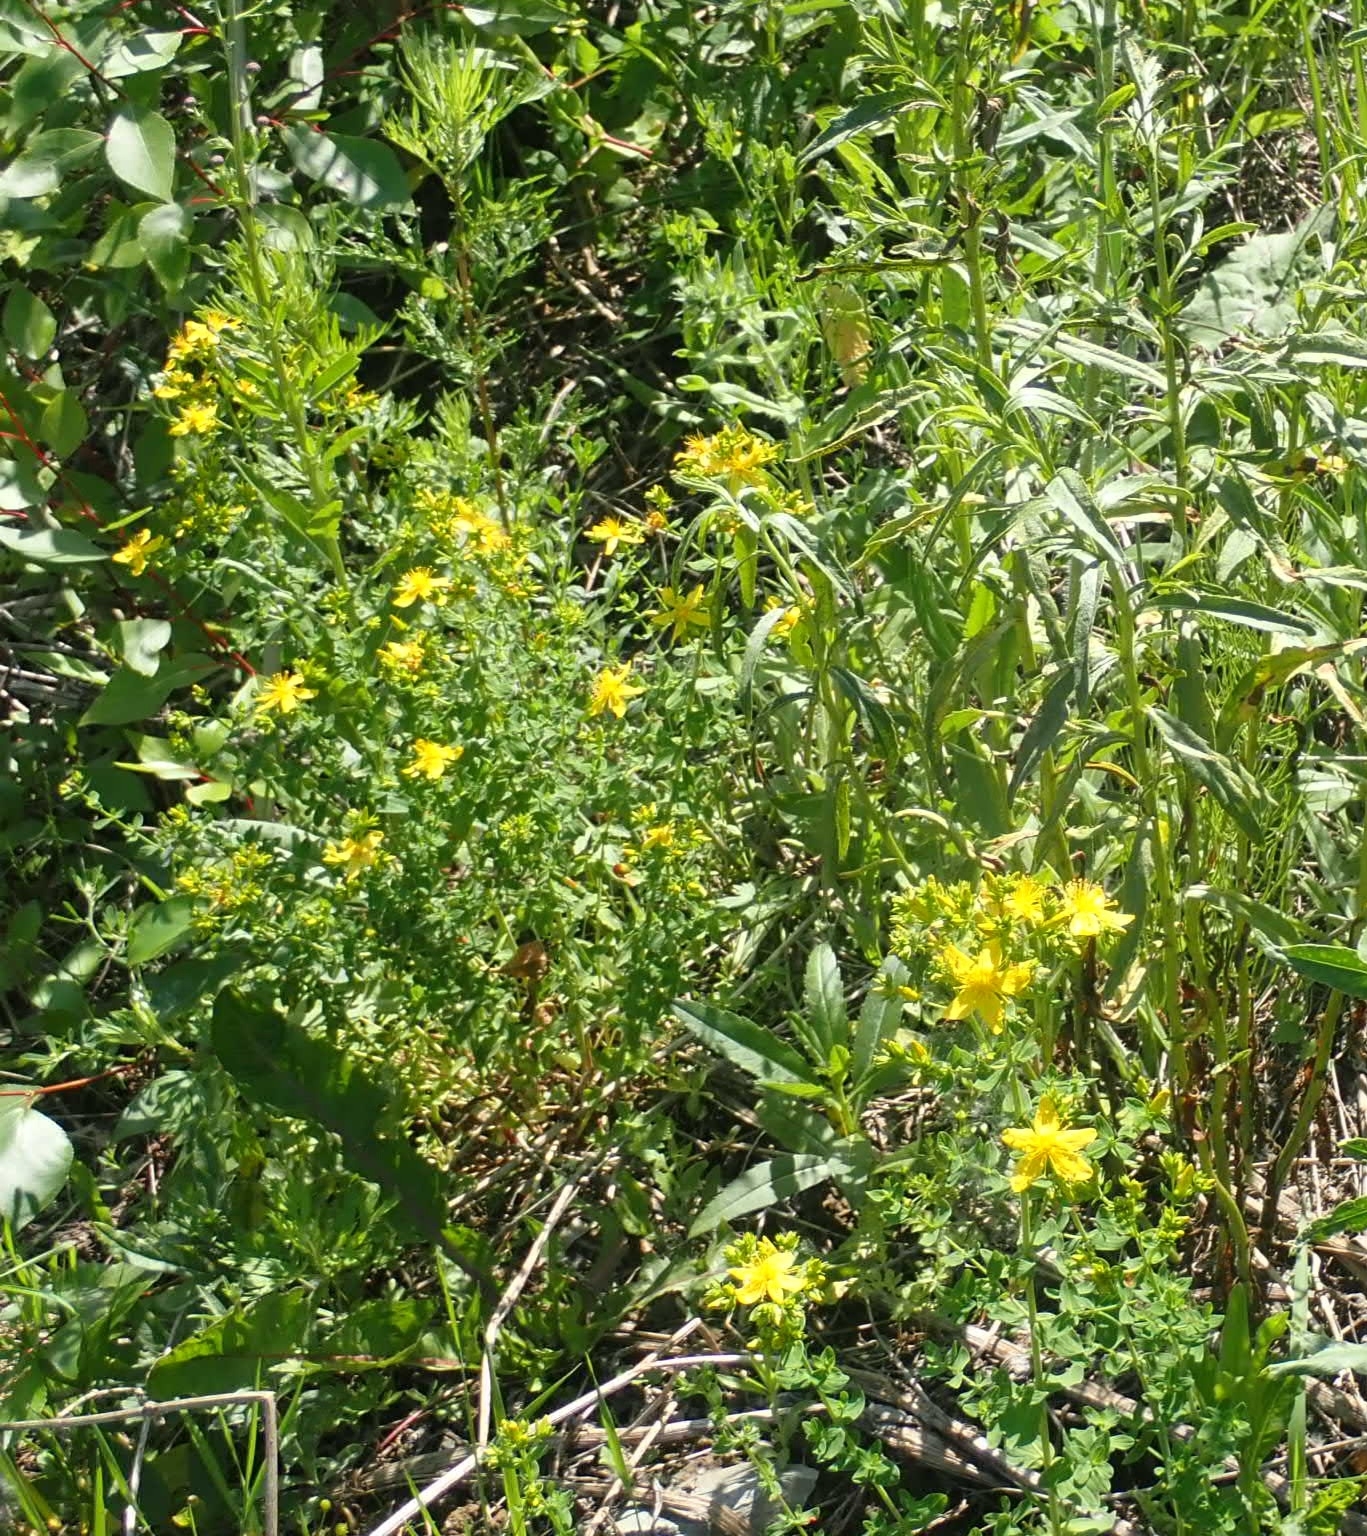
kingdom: Plantae
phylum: Tracheophyta
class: Magnoliopsida
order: Malpighiales
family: Hypericaceae
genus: Hypericum
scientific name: Hypericum perforatum
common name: Common st. johnswort
